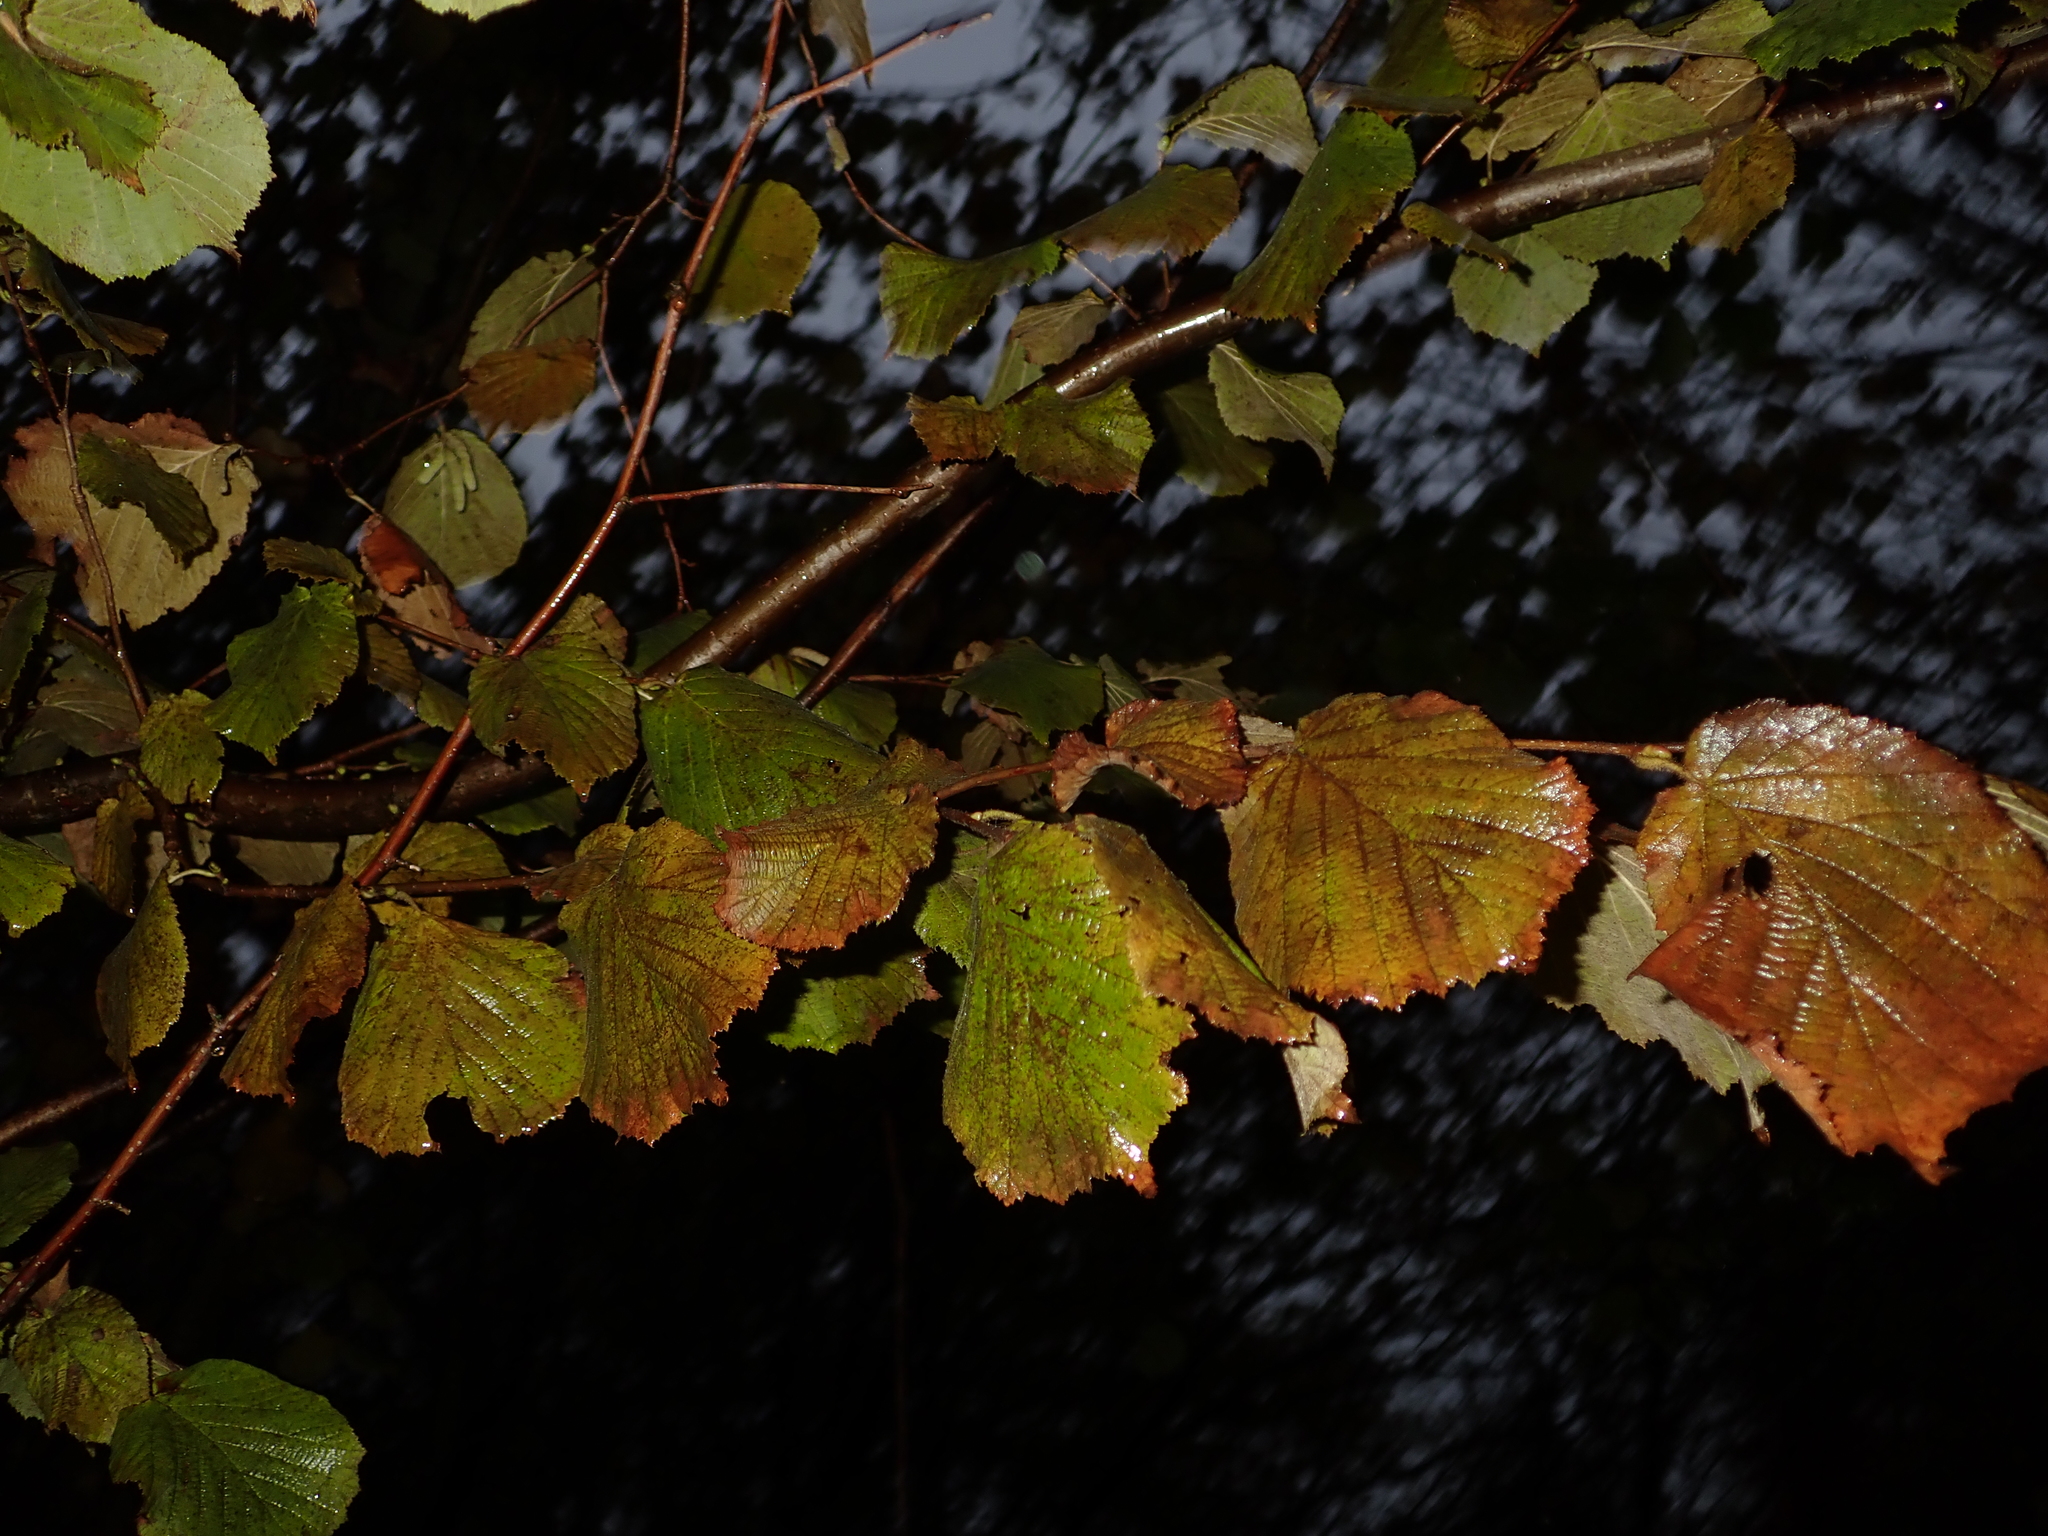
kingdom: Plantae
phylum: Tracheophyta
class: Magnoliopsida
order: Fagales
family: Betulaceae
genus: Corylus
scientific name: Corylus avellana
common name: European hazel
